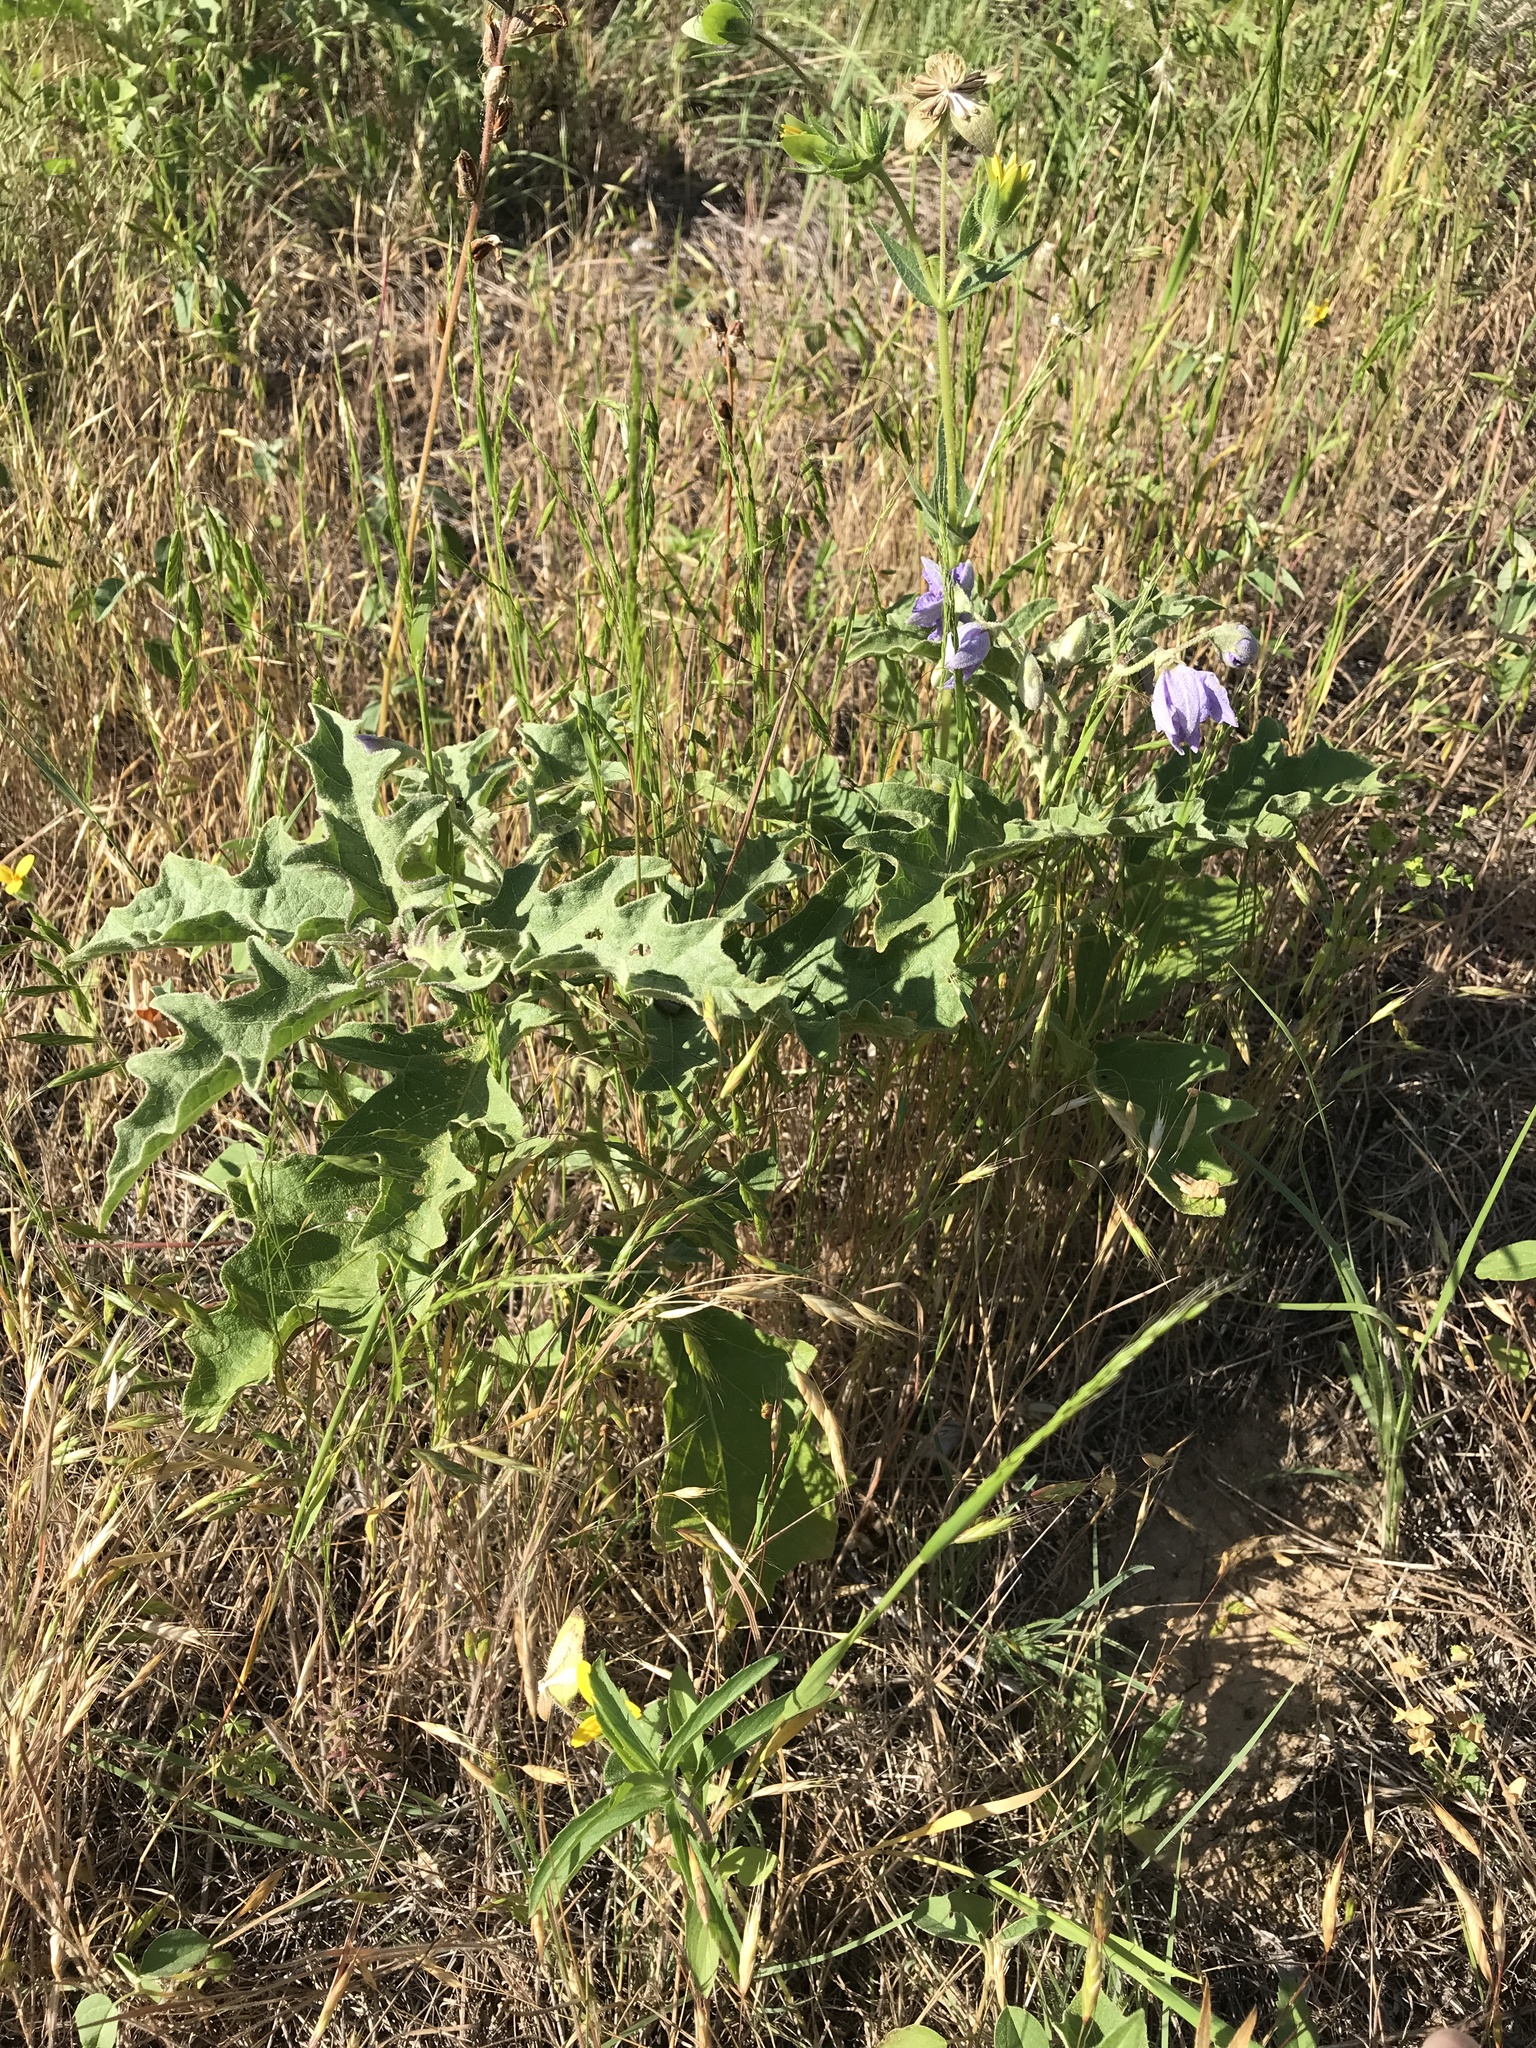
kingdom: Plantae
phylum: Tracheophyta
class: Magnoliopsida
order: Solanales
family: Solanaceae
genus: Solanum
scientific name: Solanum dimidiatum
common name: Carolina horse-nettle
